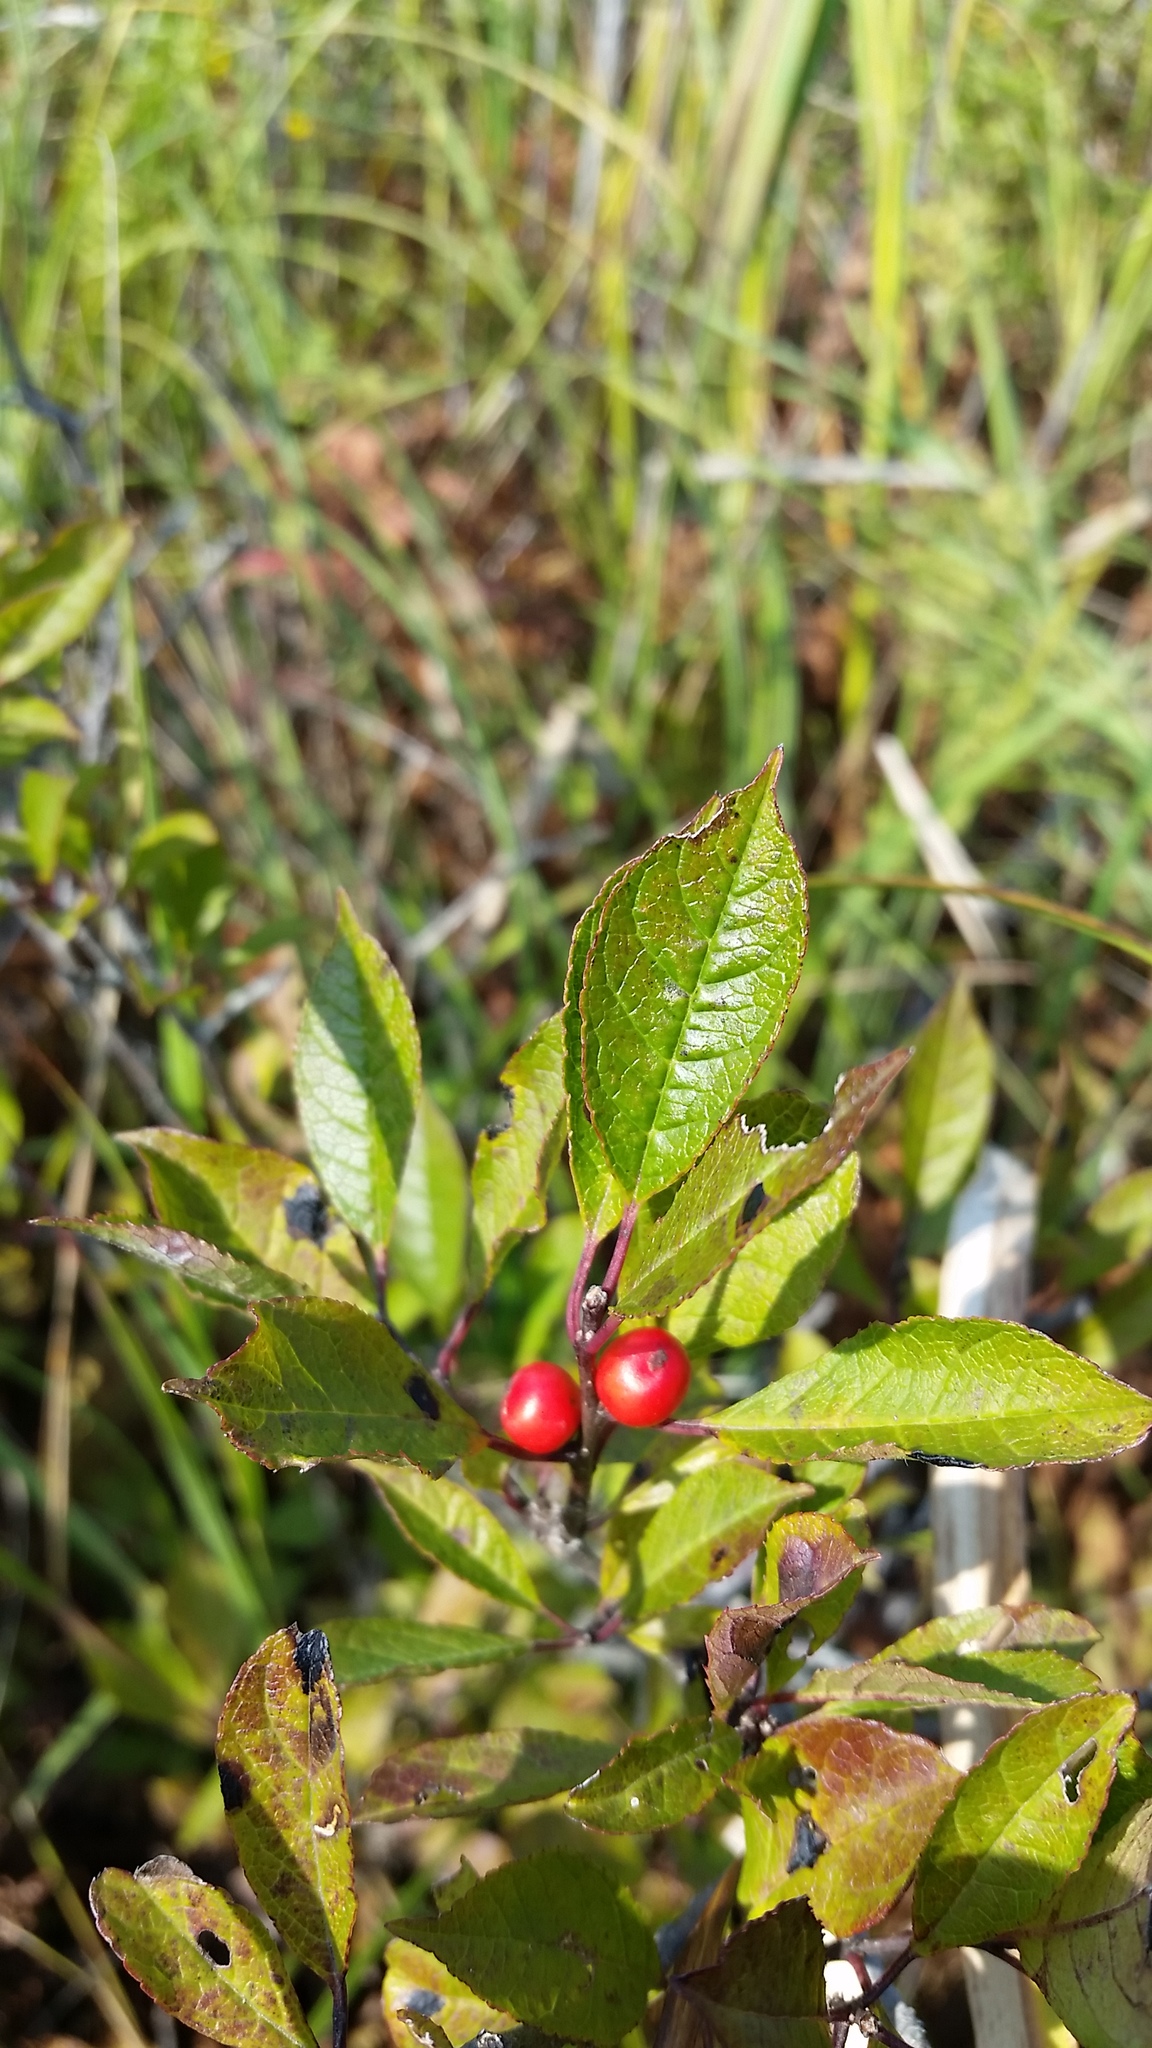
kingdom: Plantae
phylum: Tracheophyta
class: Magnoliopsida
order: Aquifoliales
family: Aquifoliaceae
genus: Ilex
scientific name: Ilex verticillata
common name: Virginia winterberry
